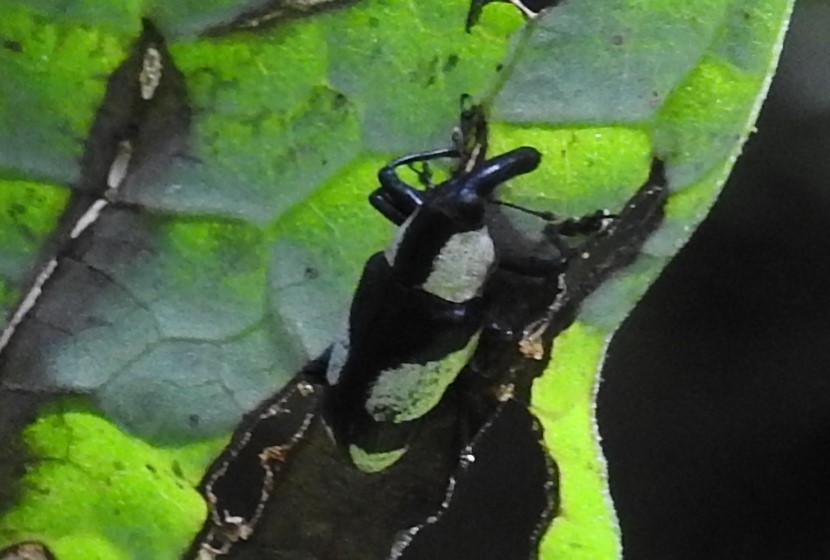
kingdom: Animalia
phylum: Arthropoda
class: Insecta
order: Coleoptera
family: Curculionidae
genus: Peridinetus
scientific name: Peridinetus cretaceus
